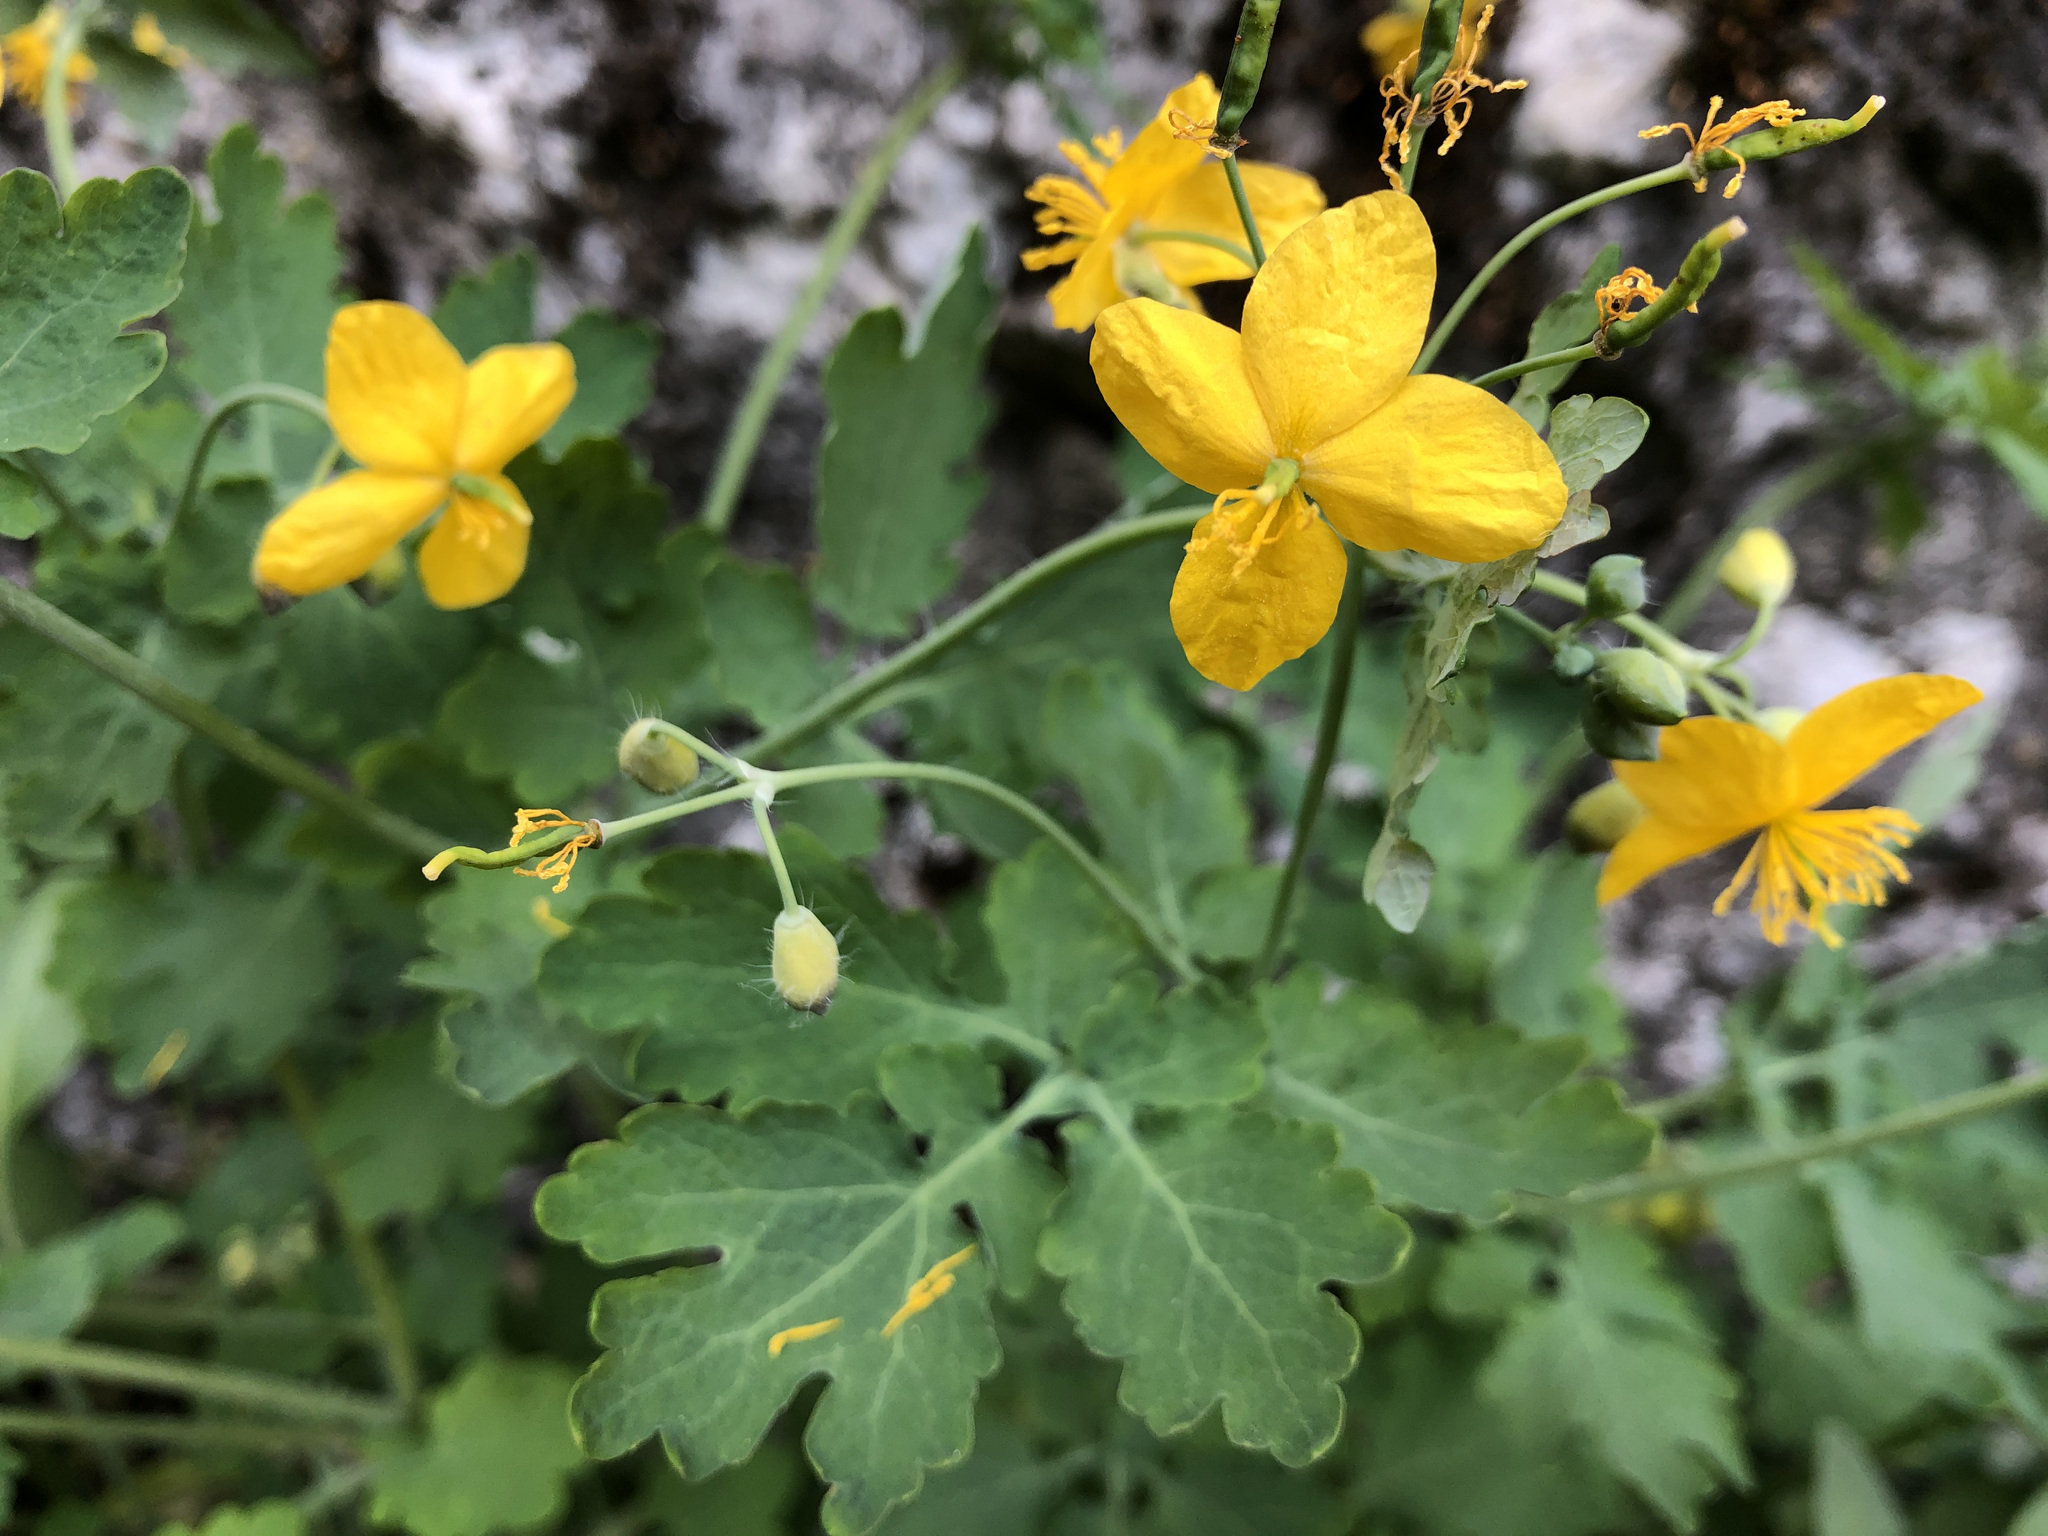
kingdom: Plantae
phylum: Tracheophyta
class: Magnoliopsida
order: Ranunculales
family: Papaveraceae
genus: Chelidonium
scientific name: Chelidonium majus
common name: Greater celandine
